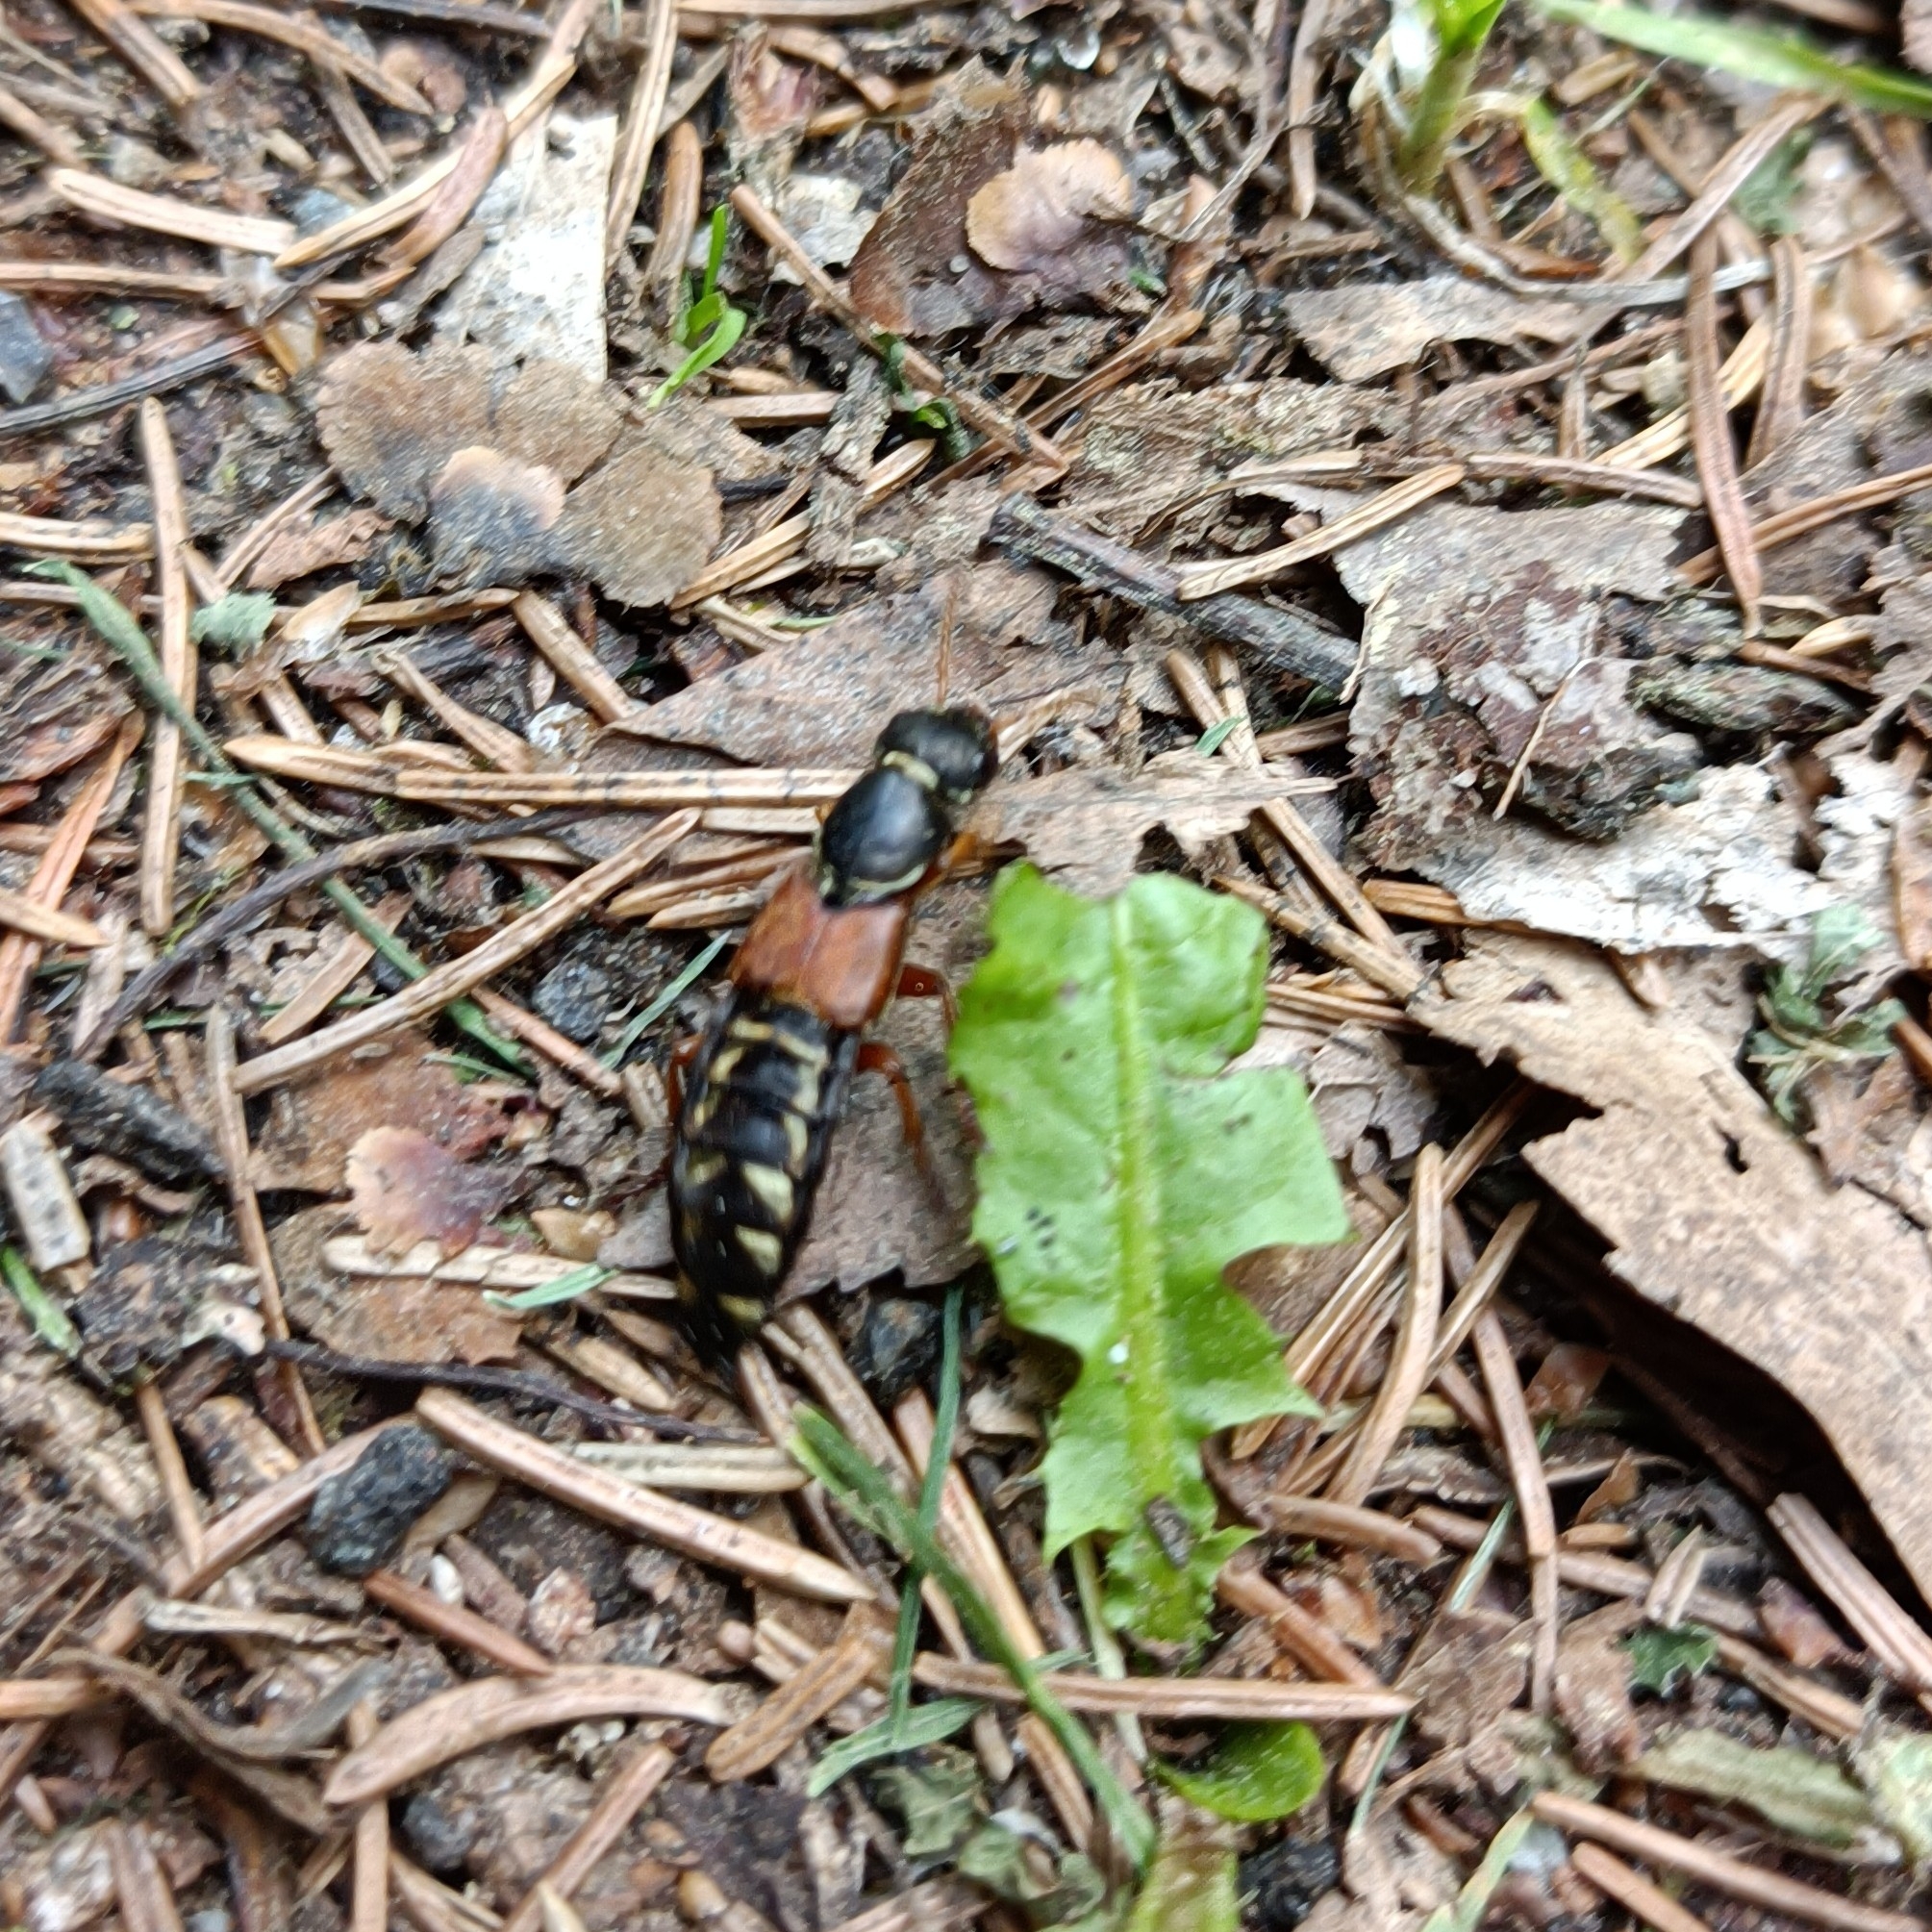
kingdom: Animalia
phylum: Arthropoda
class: Insecta
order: Coleoptera
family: Staphylinidae
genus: Staphylinus
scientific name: Staphylinus erythropterus
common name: Staph beetle
